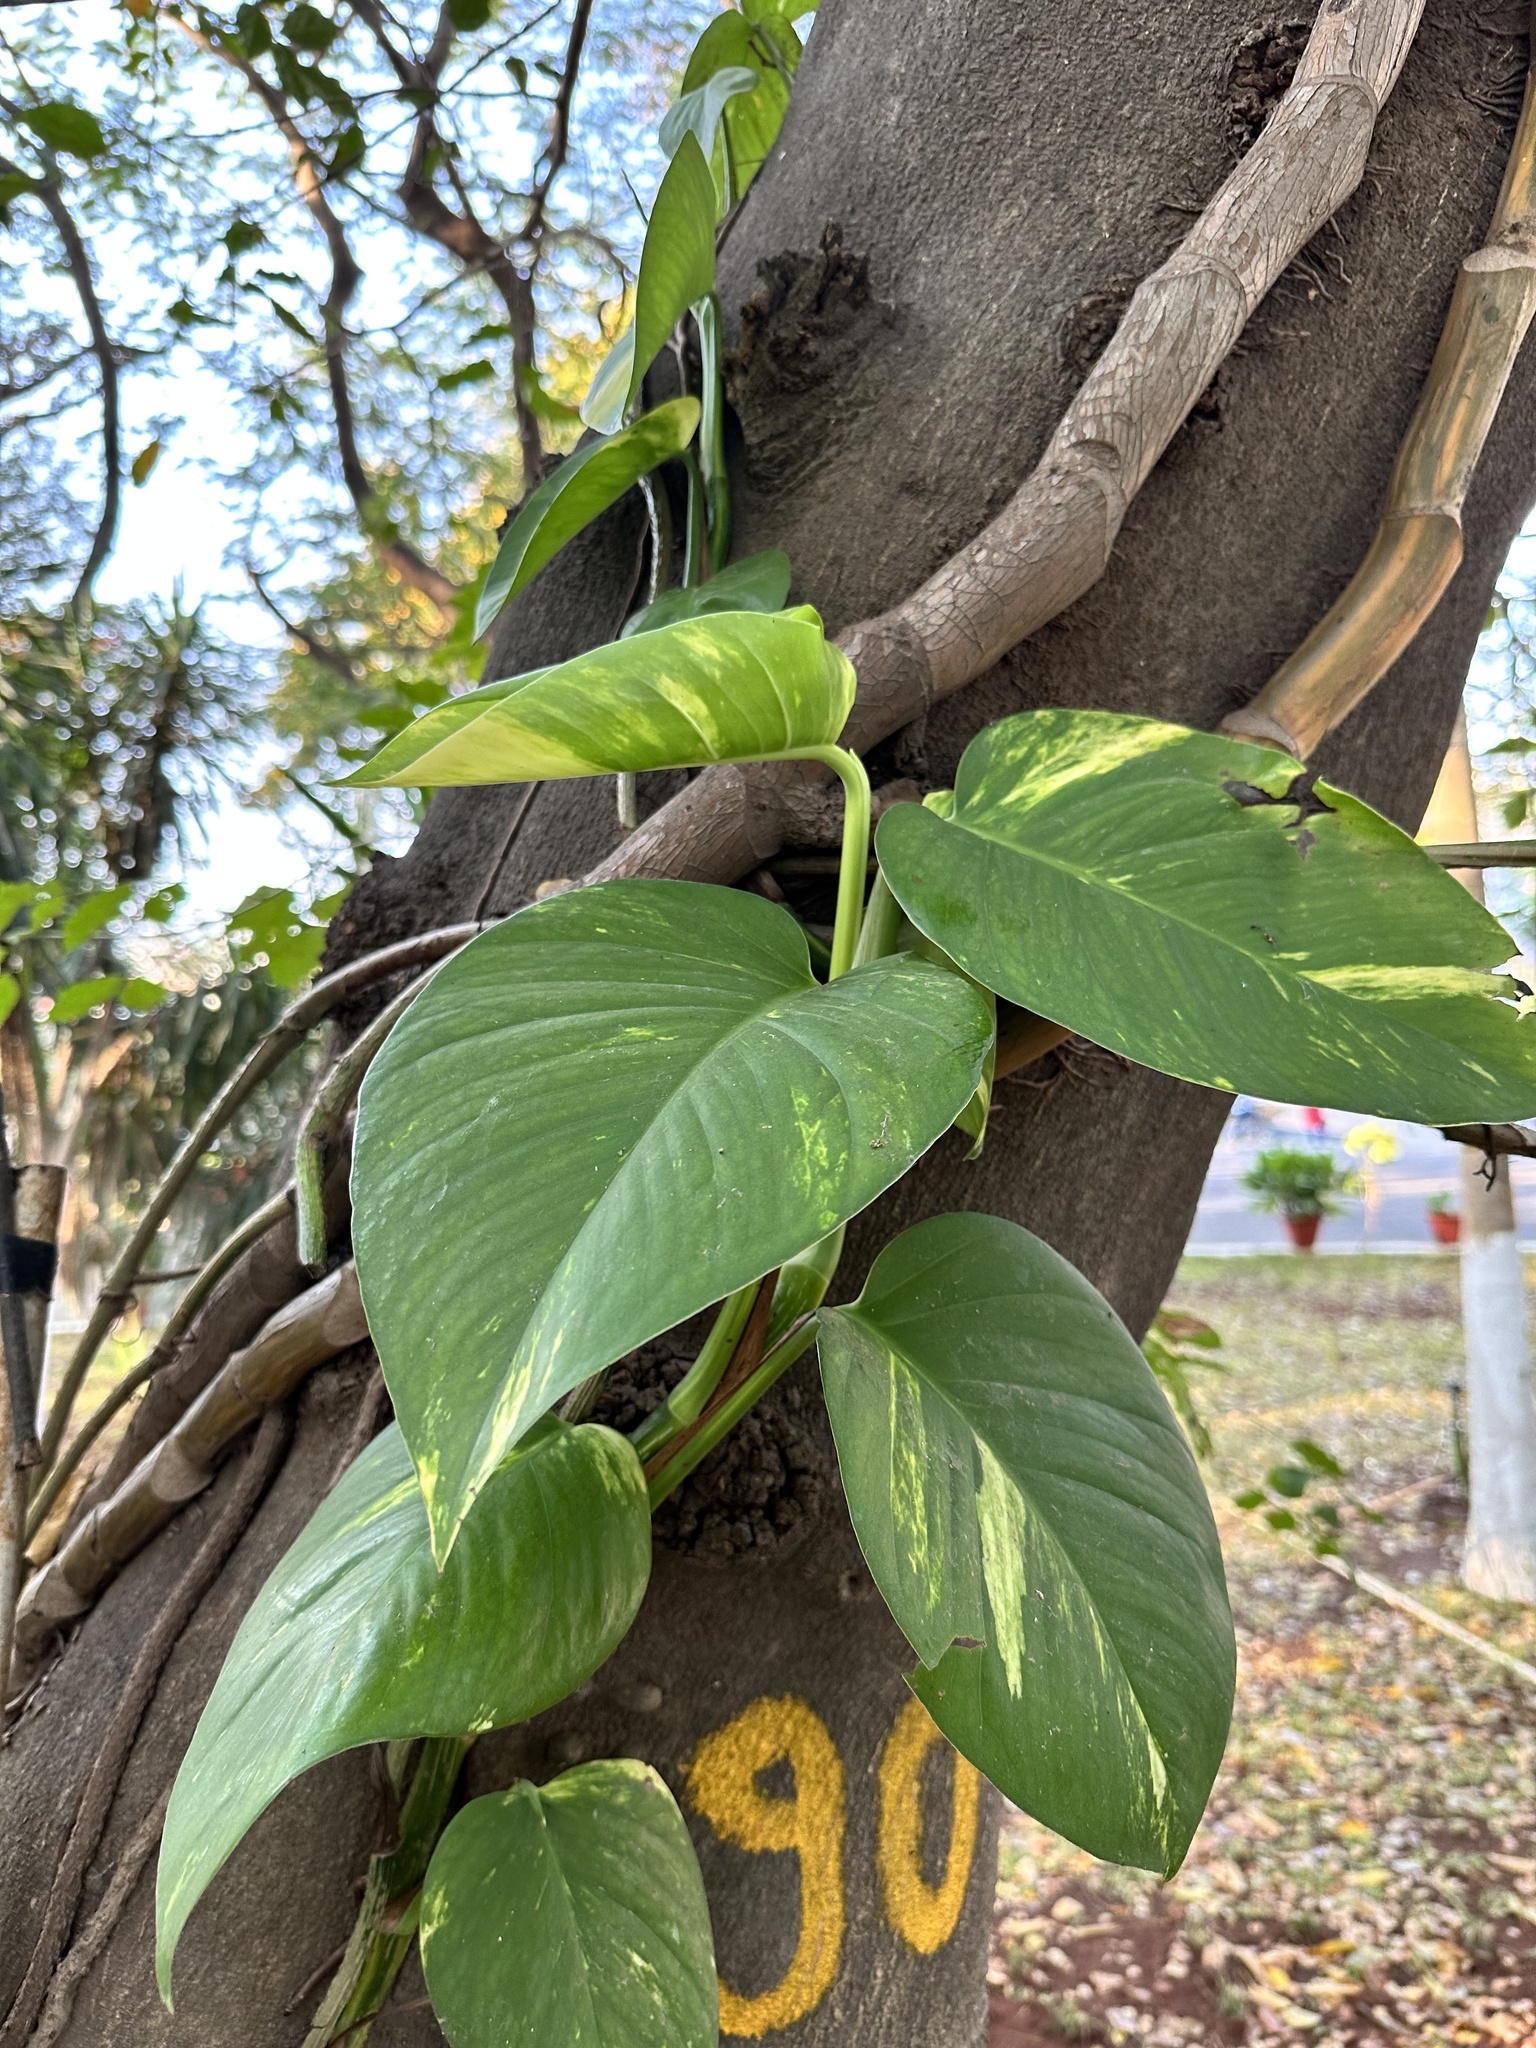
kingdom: Plantae
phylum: Tracheophyta
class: Liliopsida
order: Alismatales
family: Araceae
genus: Epipremnum
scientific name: Epipremnum aureum
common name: Golden hunter's-robe
